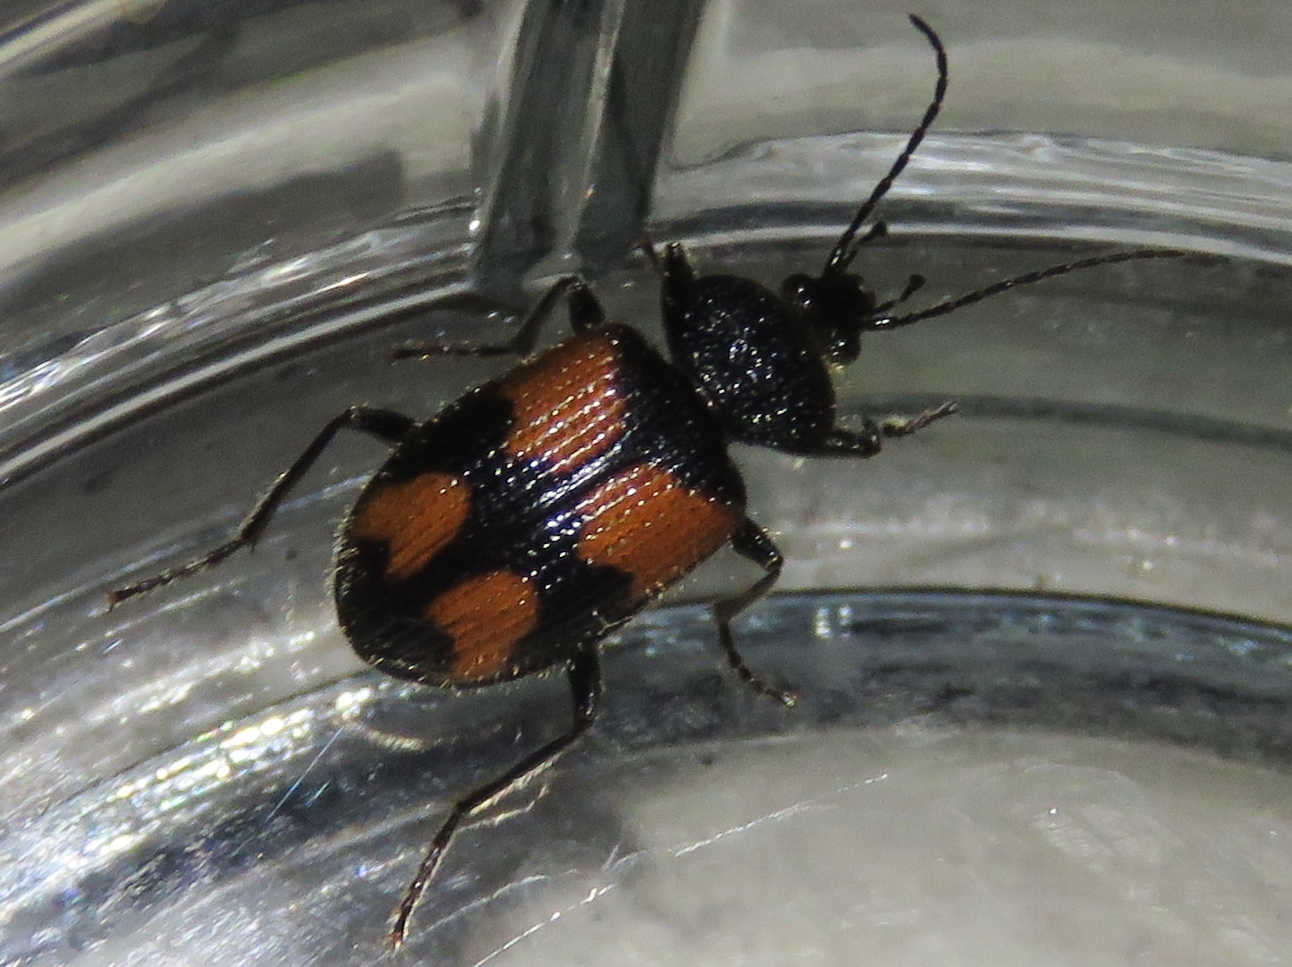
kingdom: Animalia
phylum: Arthropoda
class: Insecta
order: Coleoptera
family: Carabidae
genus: Panagaeus
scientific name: Panagaeus quadrisignatus
